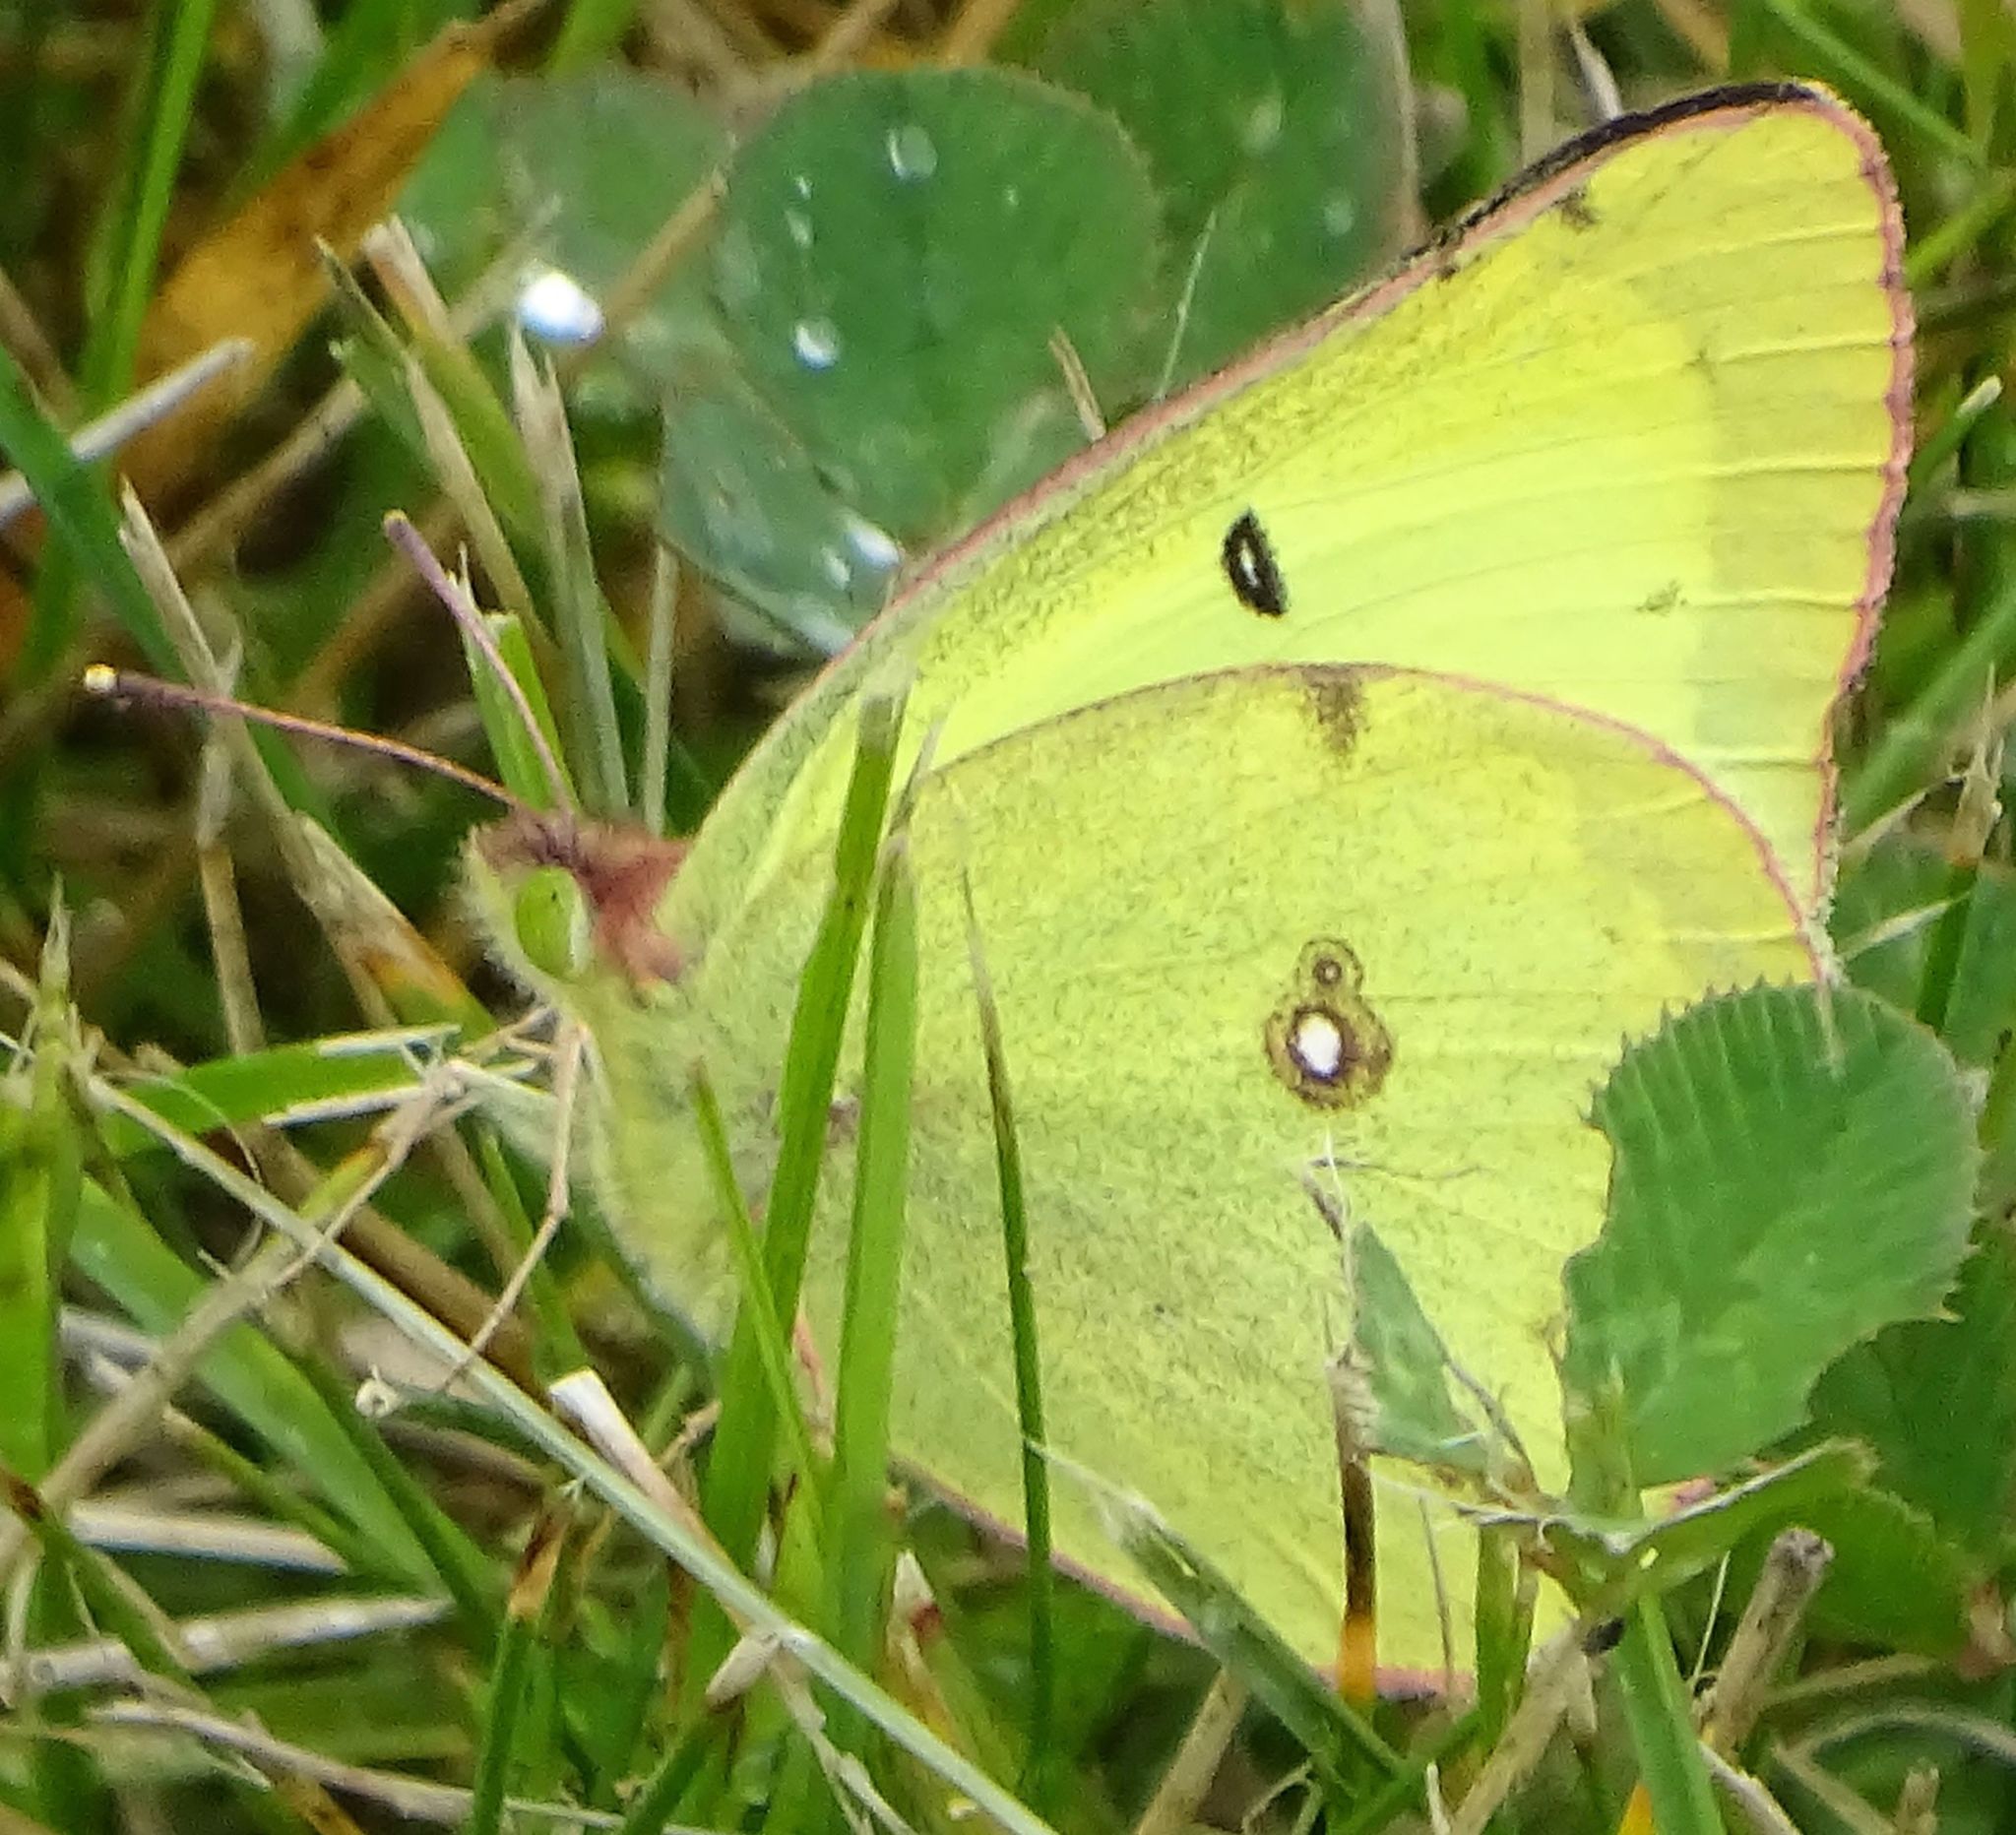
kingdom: Animalia
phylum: Arthropoda
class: Insecta
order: Lepidoptera
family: Pieridae
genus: Colias
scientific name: Colias philodice
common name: Clouded sulphur
